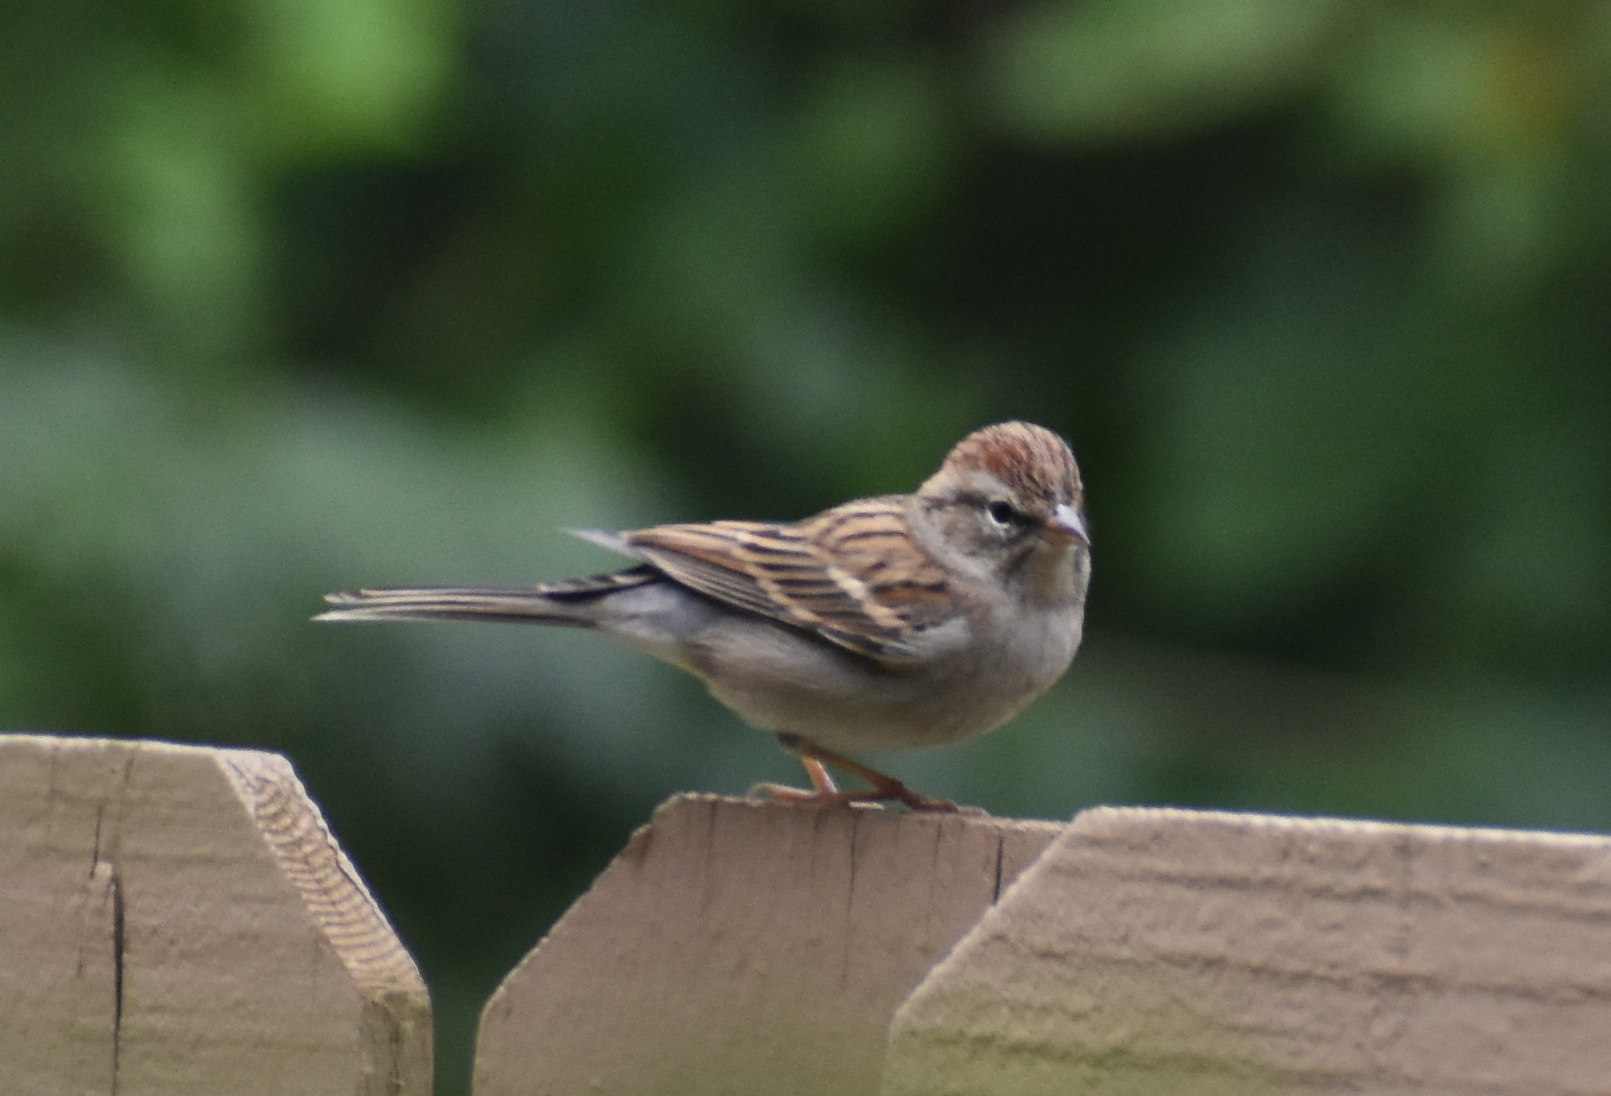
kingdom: Animalia
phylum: Chordata
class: Aves
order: Passeriformes
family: Passerellidae
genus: Spizella
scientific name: Spizella passerina
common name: Chipping sparrow
